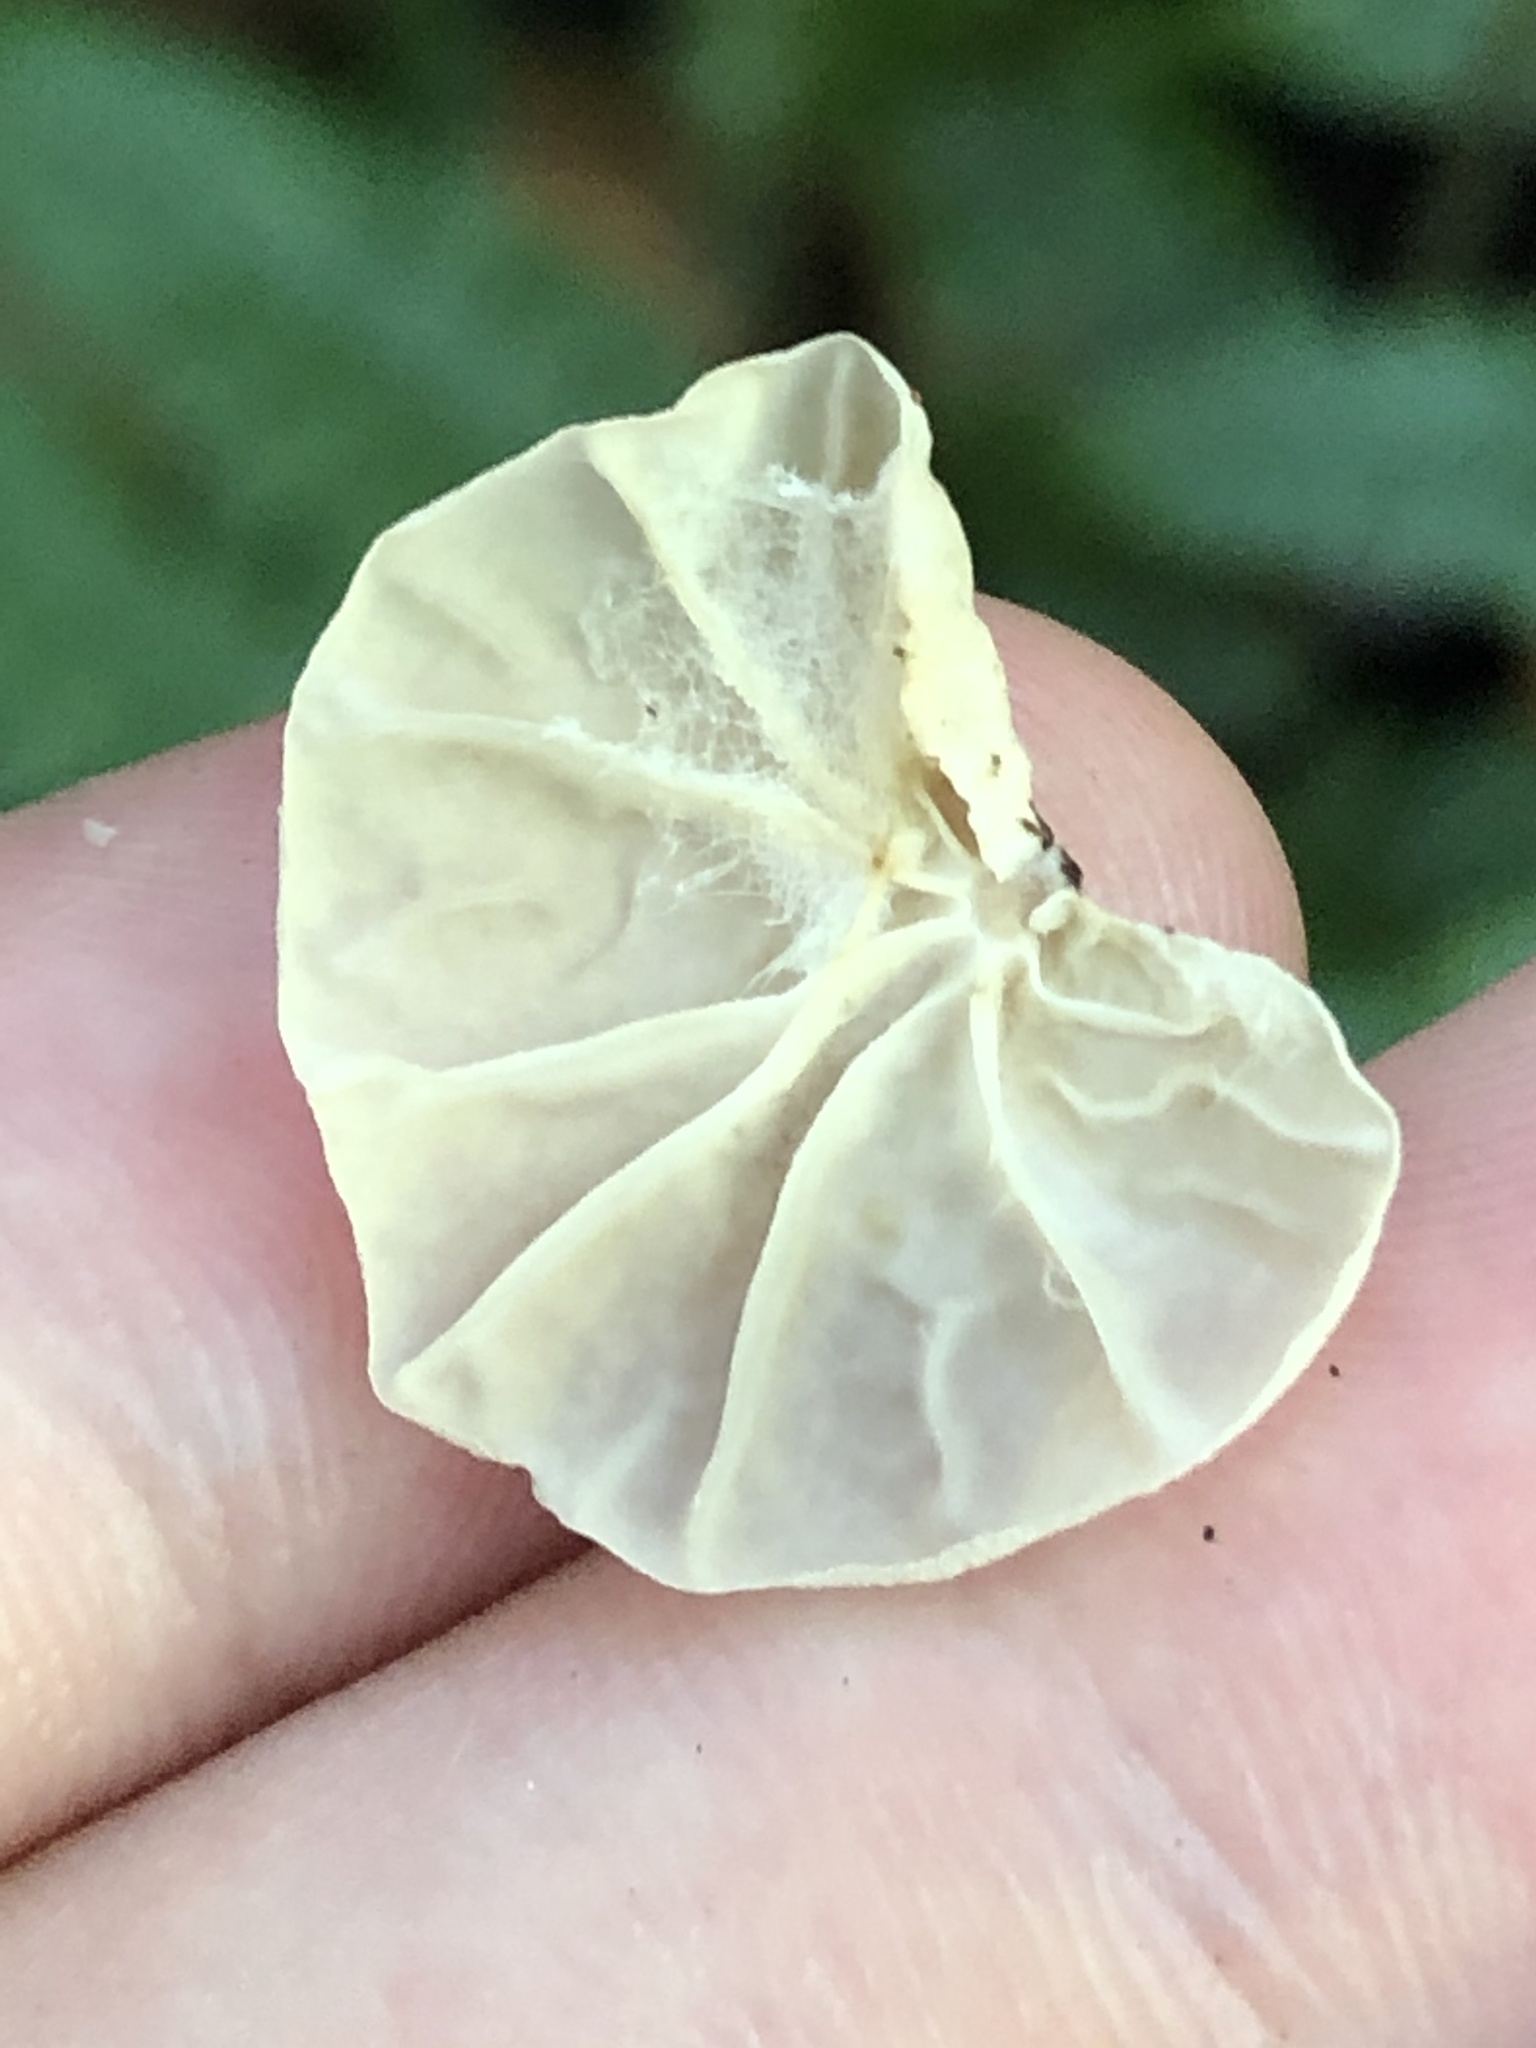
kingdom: Fungi
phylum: Basidiomycota
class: Agaricomycetes
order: Agaricales
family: Omphalotaceae
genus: Marasmiellus
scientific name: Marasmiellus alliiodorus
